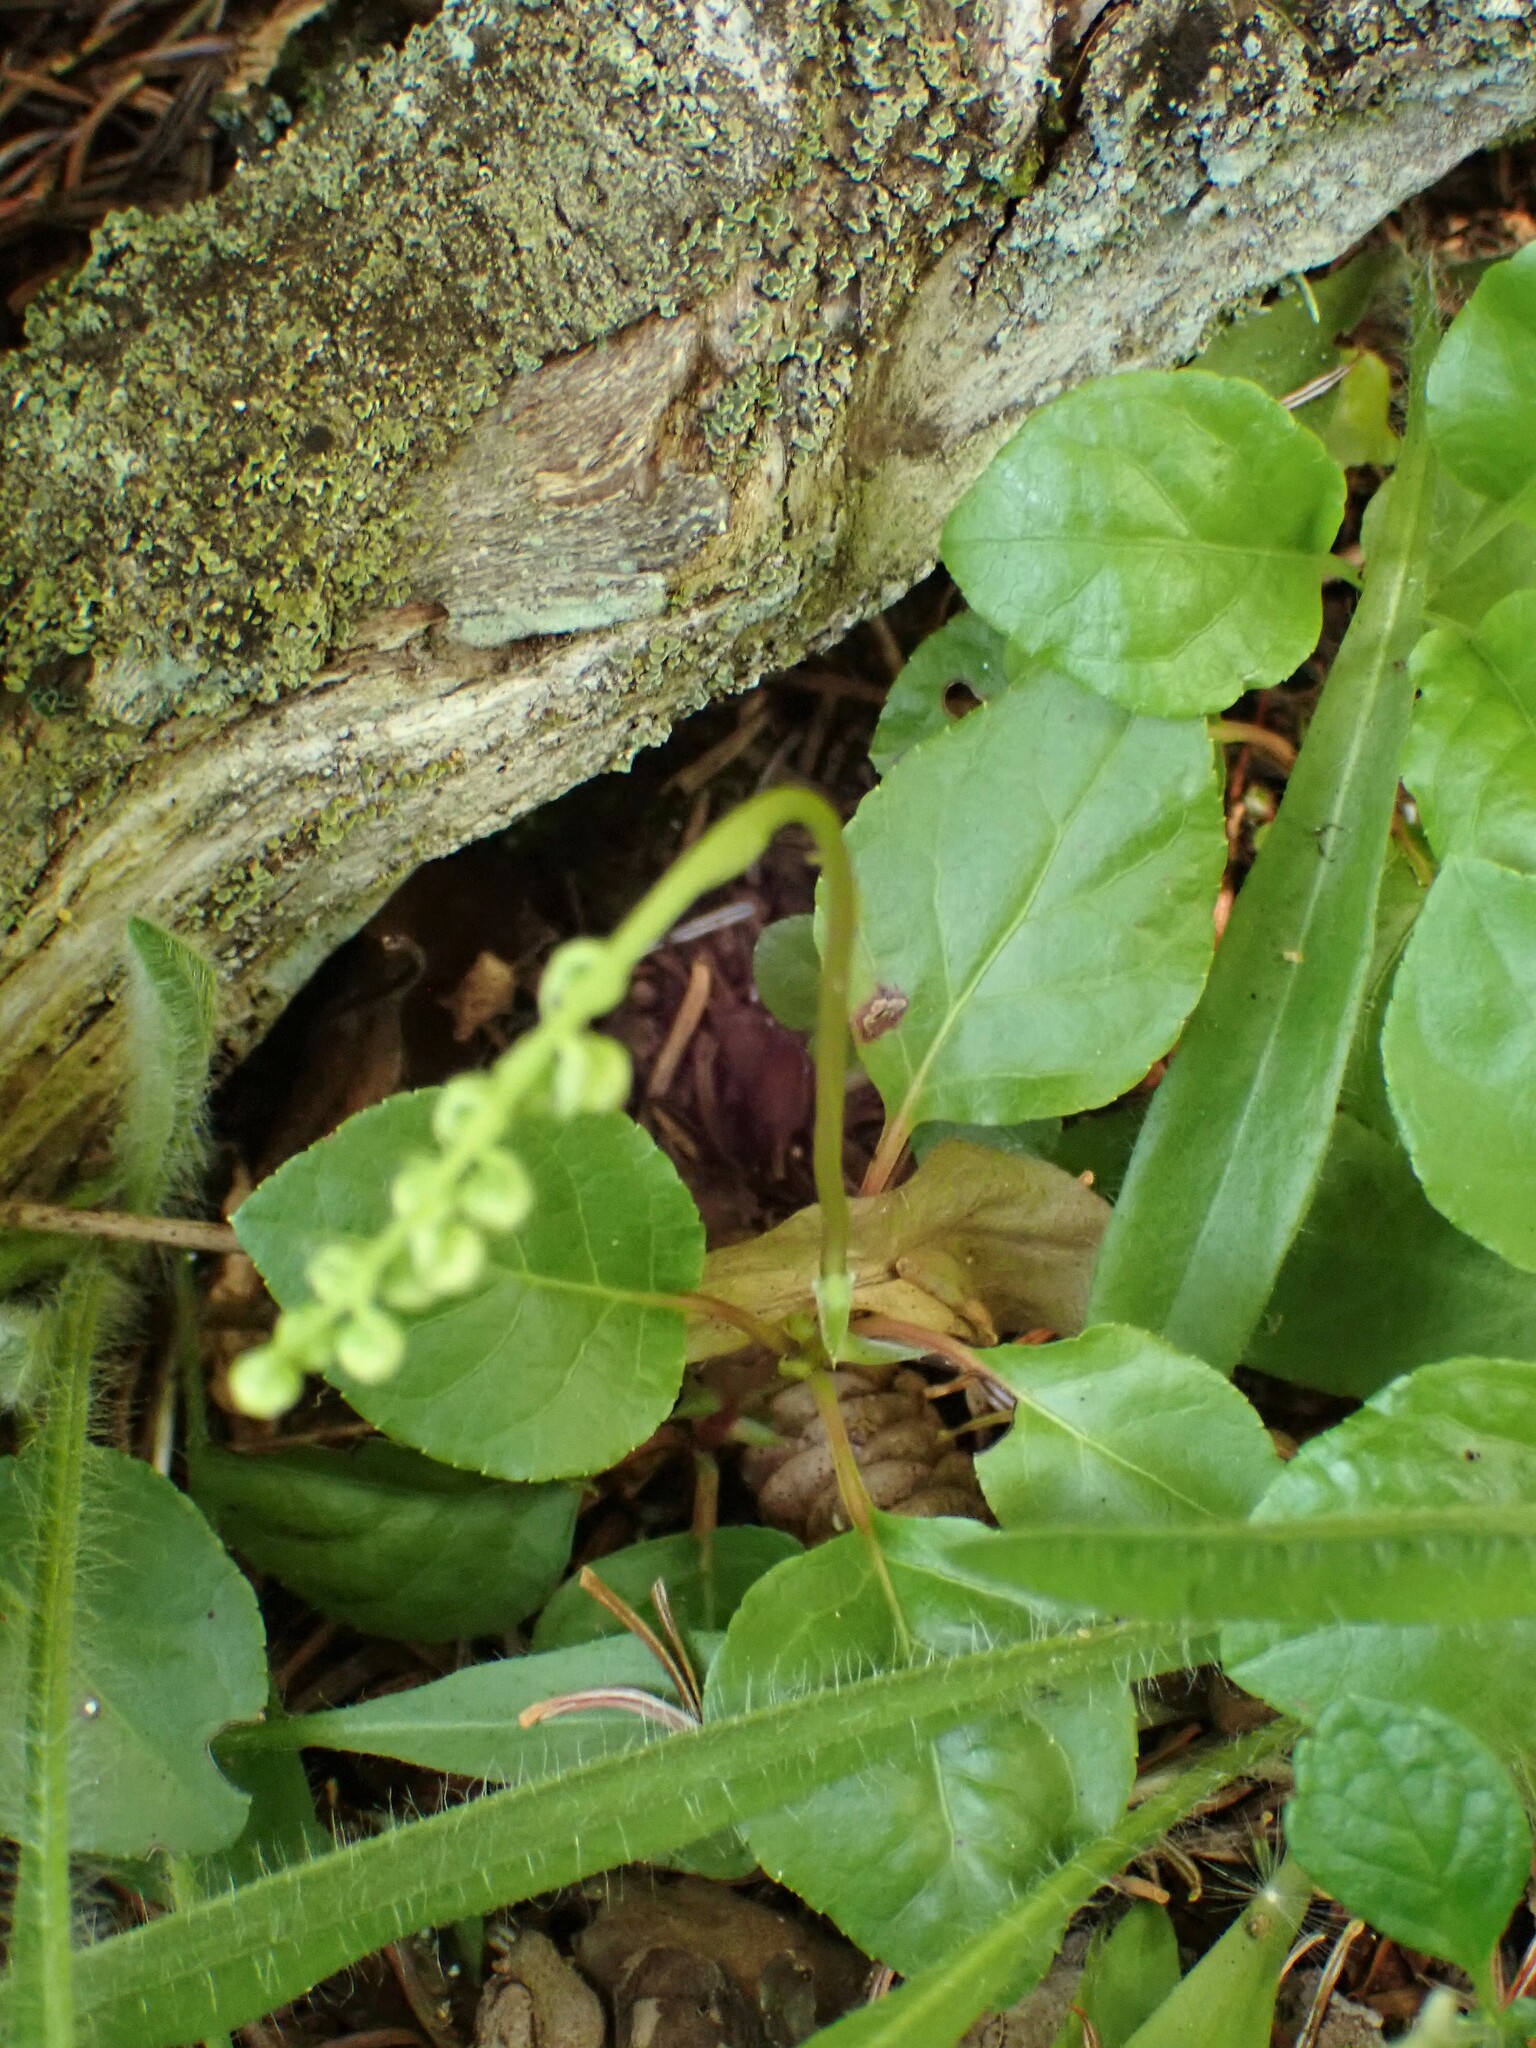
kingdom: Plantae
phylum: Tracheophyta
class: Magnoliopsida
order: Ericales
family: Ericaceae
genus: Orthilia
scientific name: Orthilia secunda
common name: One-sided orthilia
